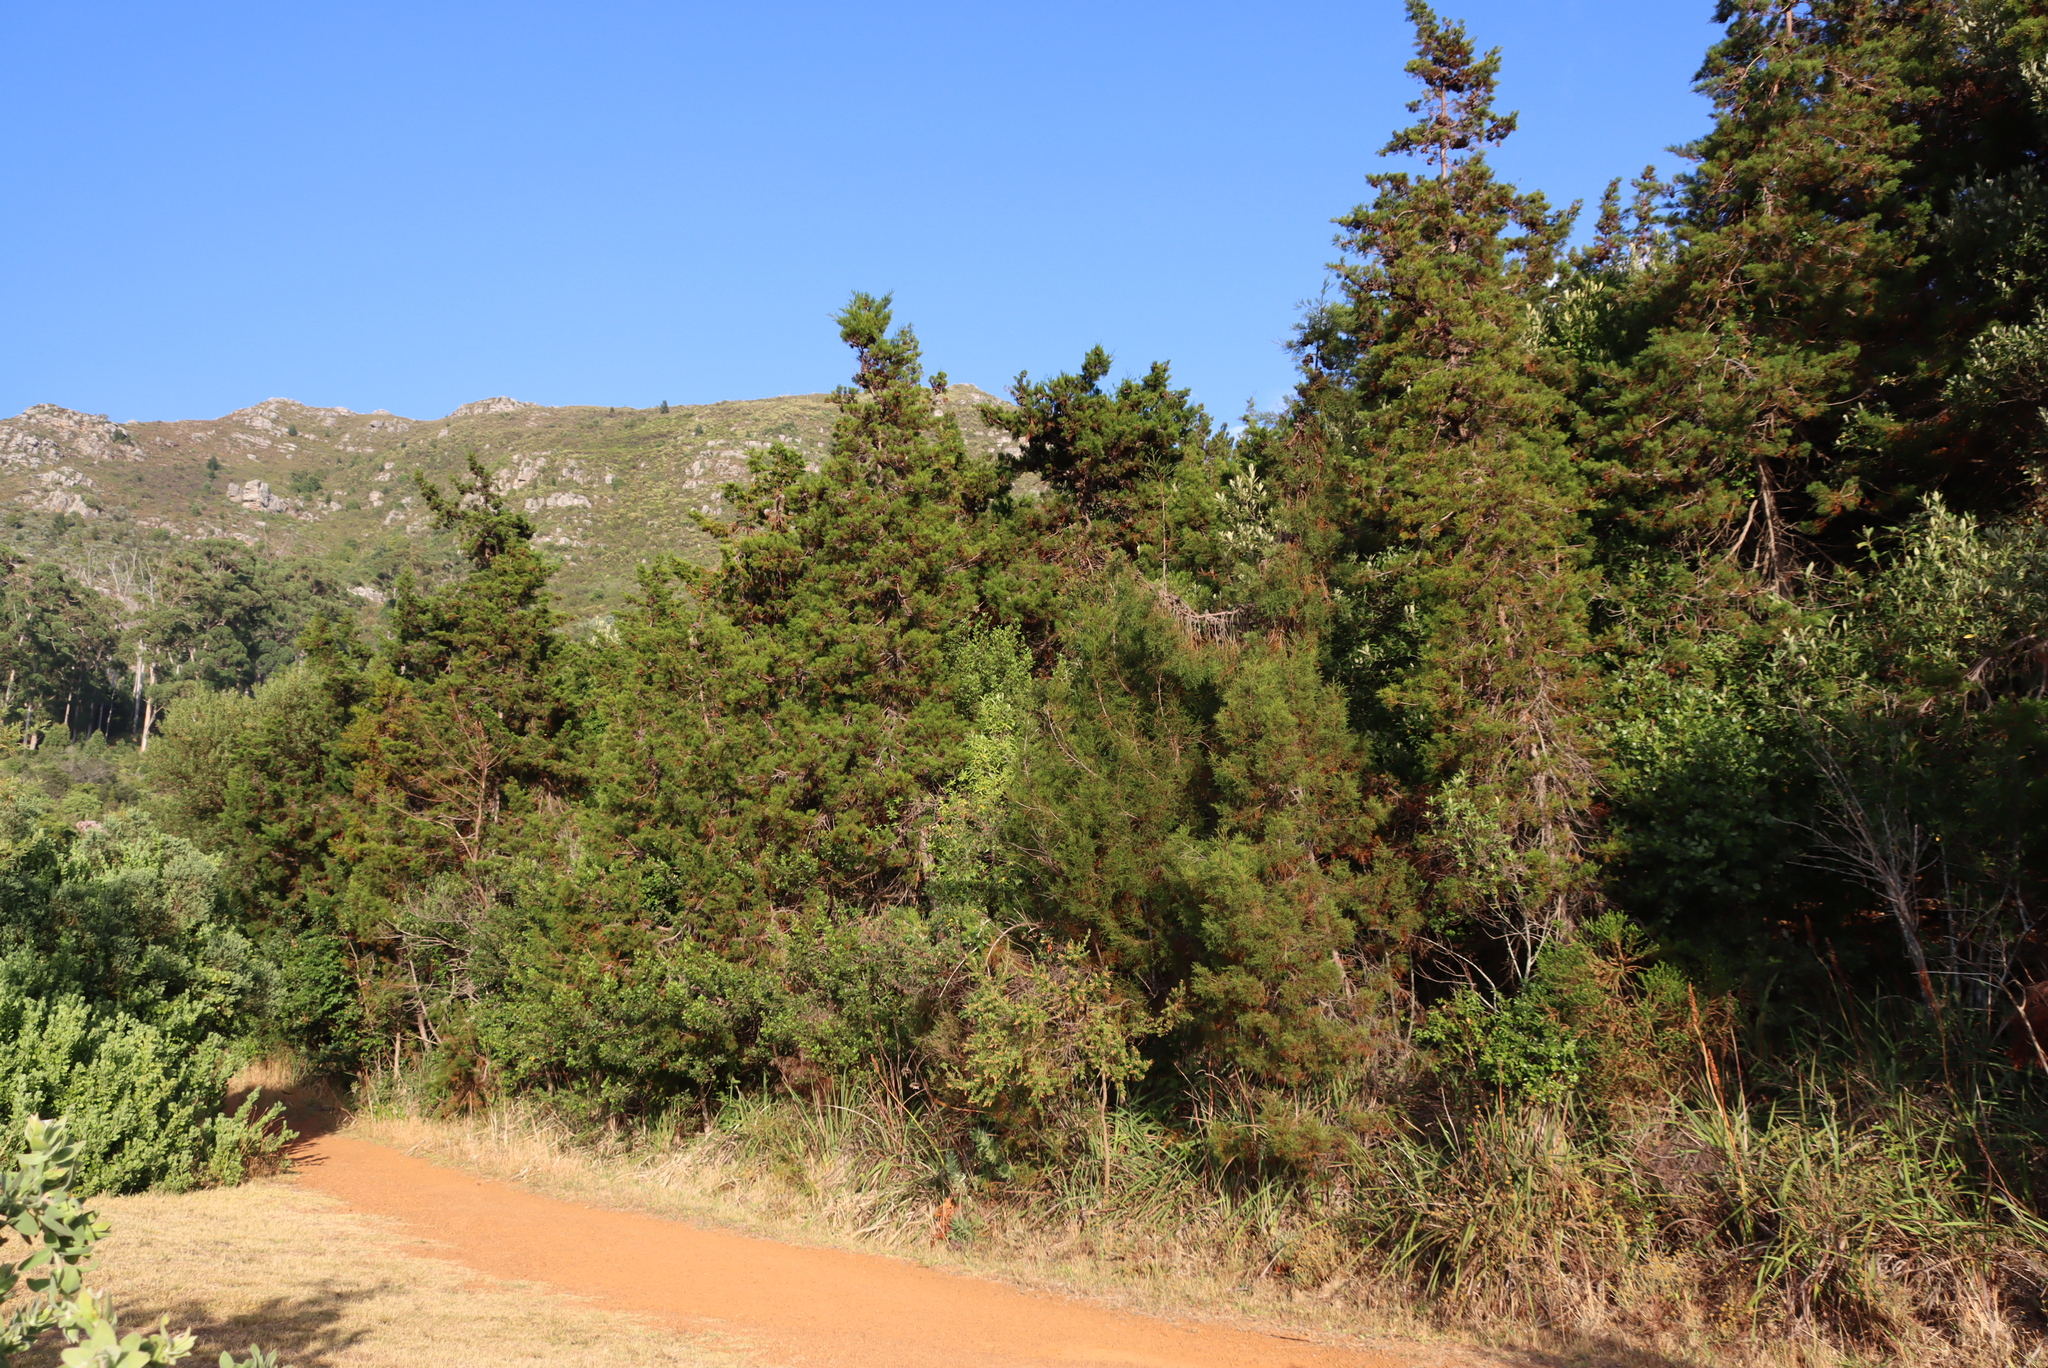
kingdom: Plantae
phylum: Tracheophyta
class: Pinopsida
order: Pinales
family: Cupressaceae
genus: Widdringtonia
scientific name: Widdringtonia nodiflora
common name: Cape cypress
